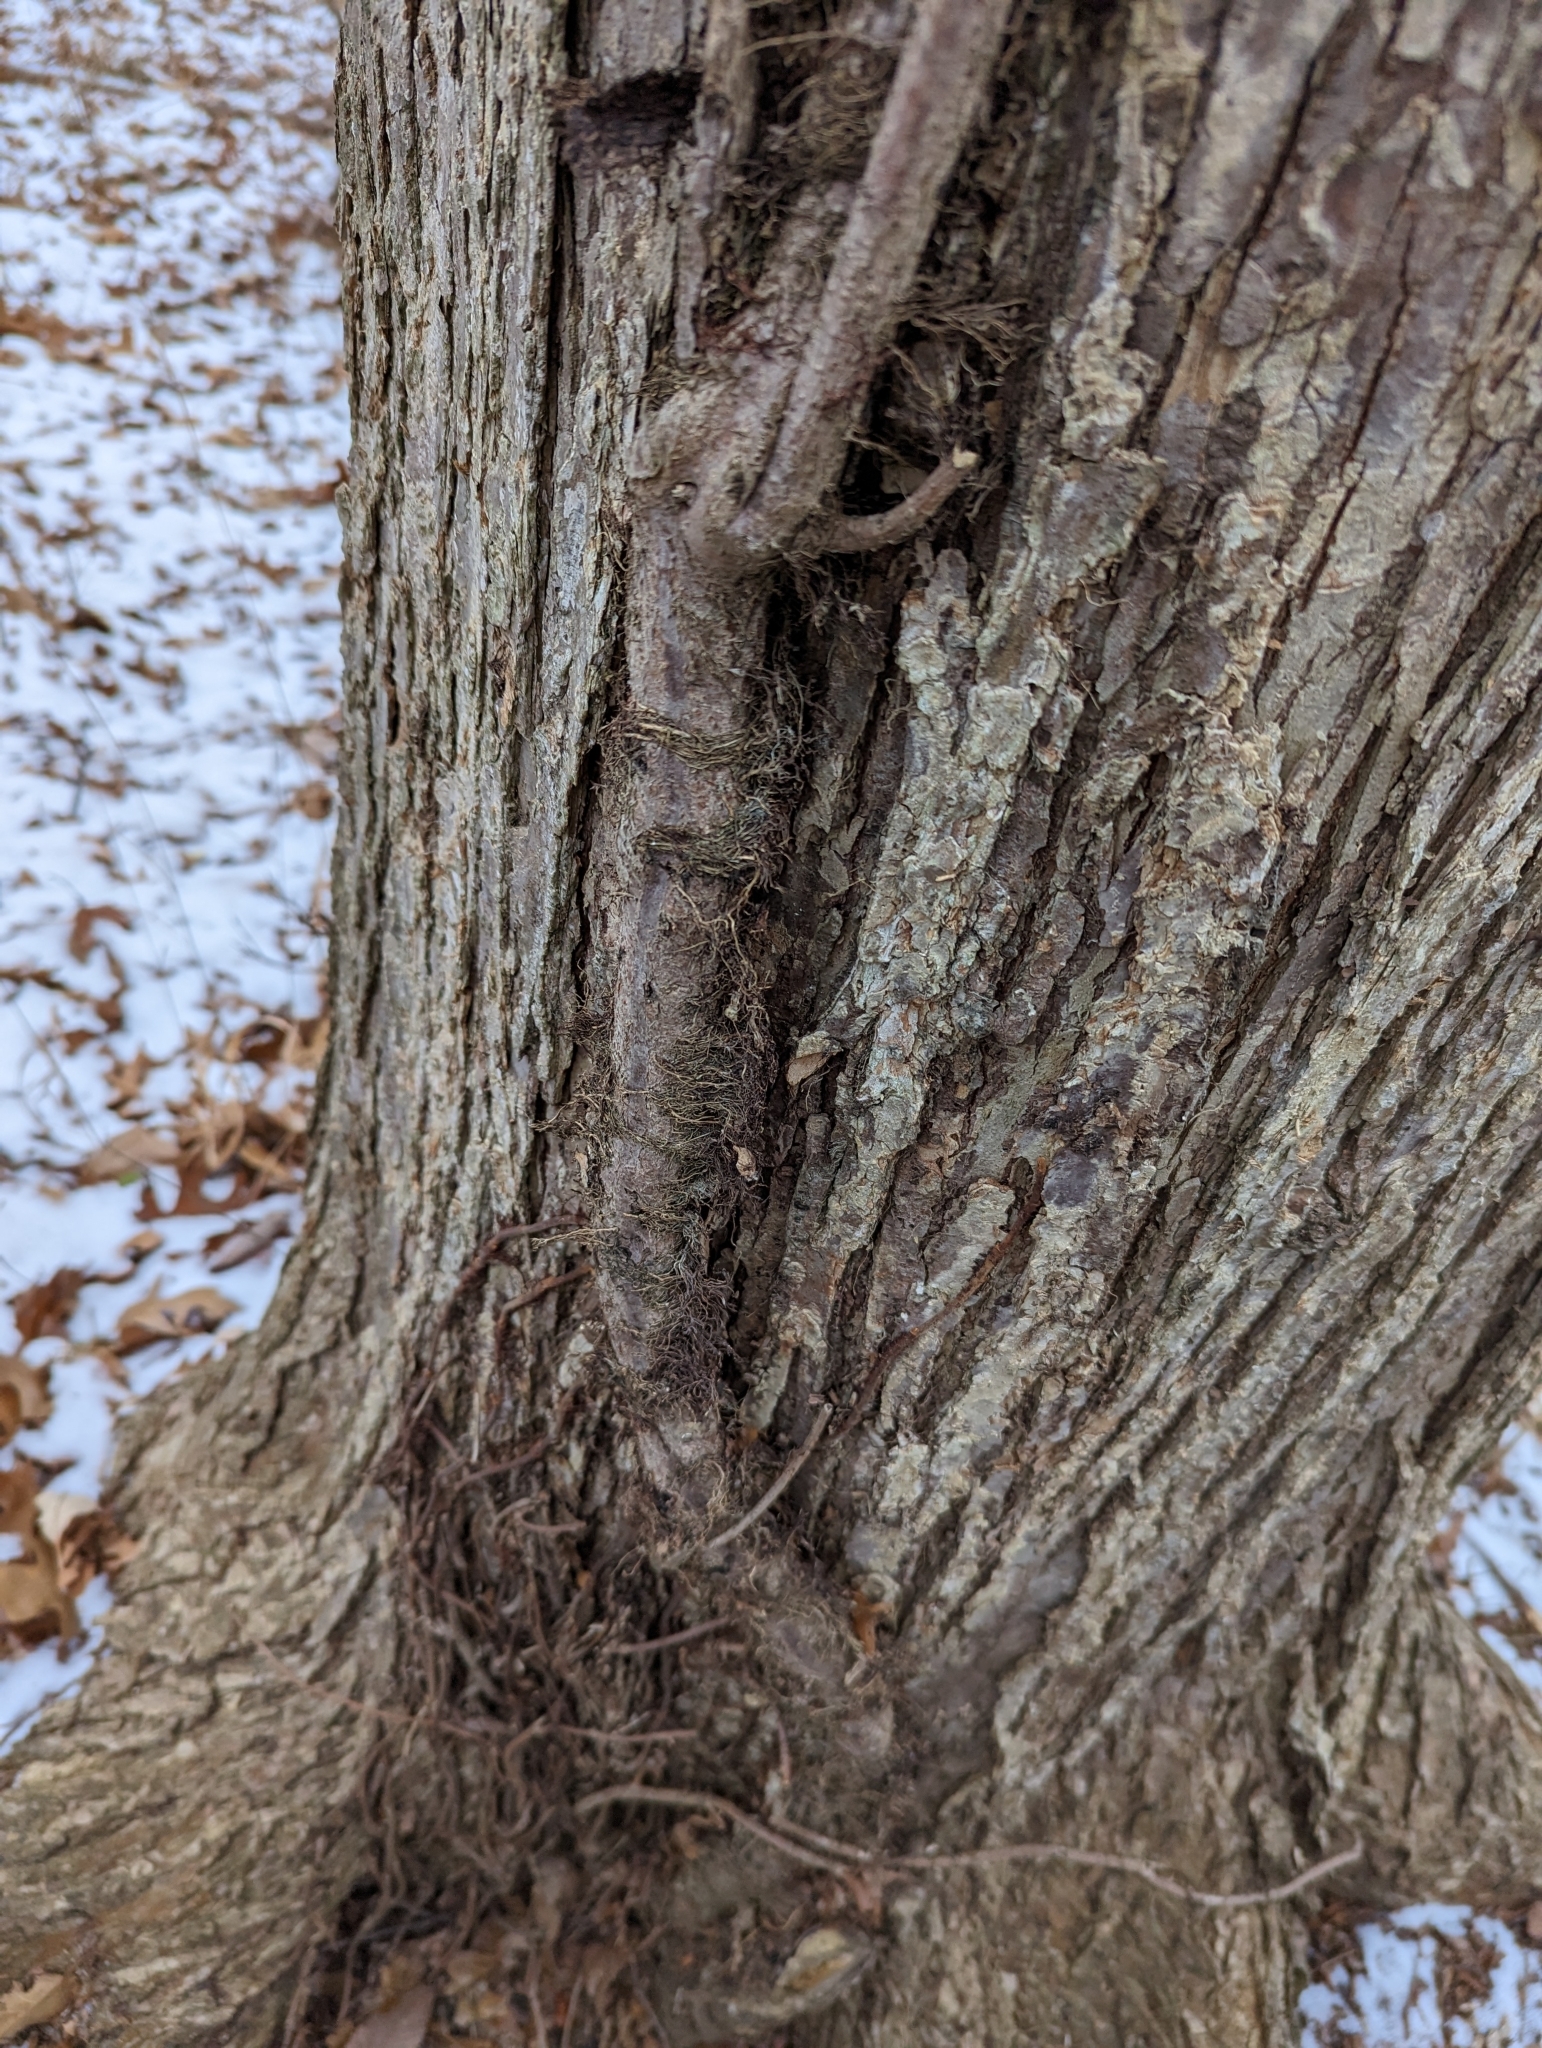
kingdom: Plantae
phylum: Tracheophyta
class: Magnoliopsida
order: Sapindales
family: Anacardiaceae
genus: Toxicodendron
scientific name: Toxicodendron radicans
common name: Poison ivy
